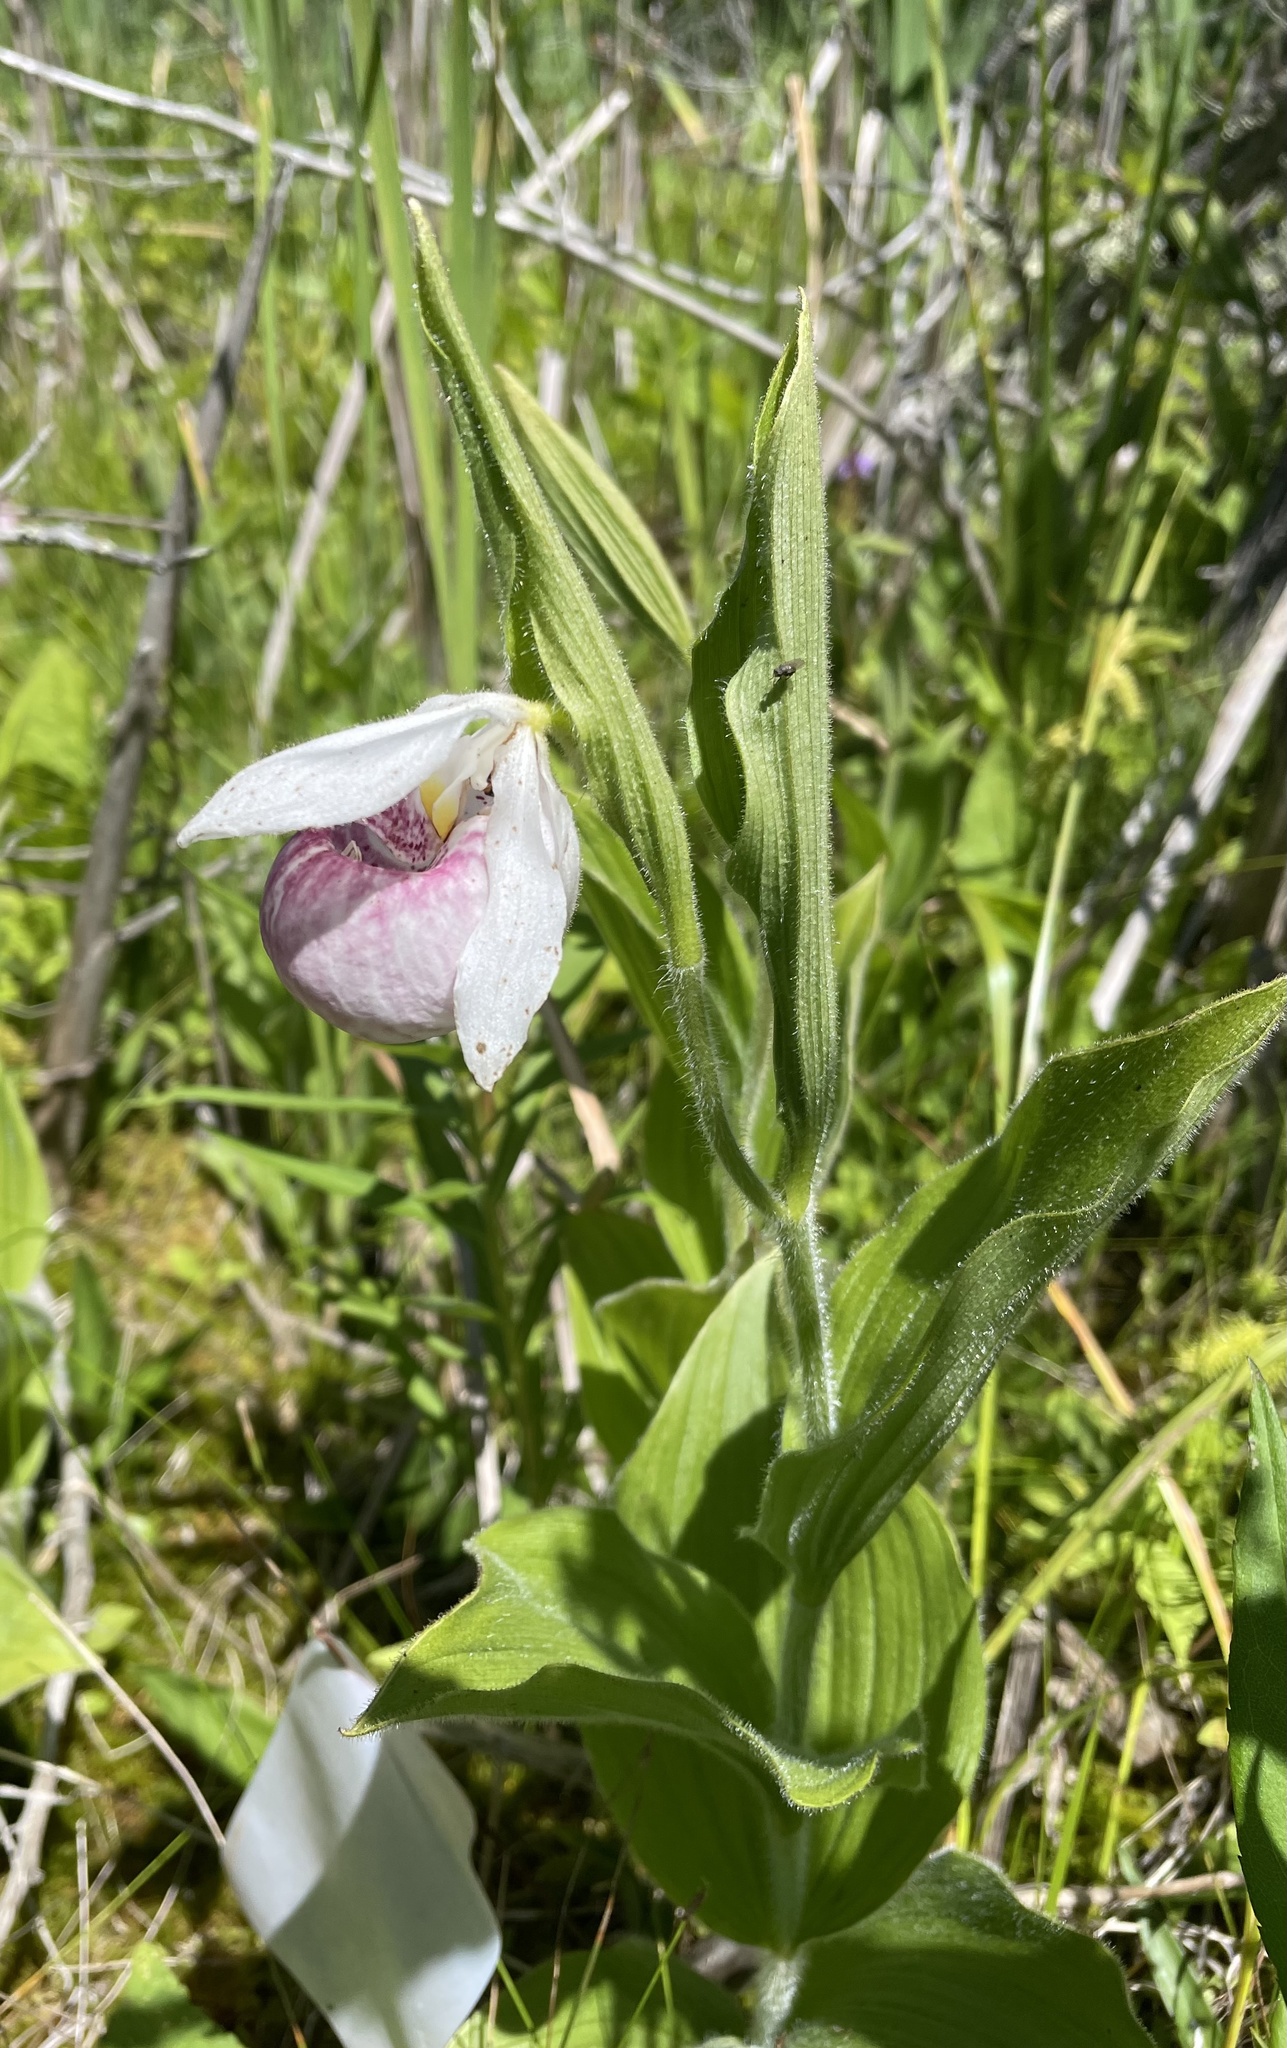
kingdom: Plantae
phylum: Tracheophyta
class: Liliopsida
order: Asparagales
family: Orchidaceae
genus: Cypripedium
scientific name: Cypripedium reginae
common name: Queen lady's-slipper
